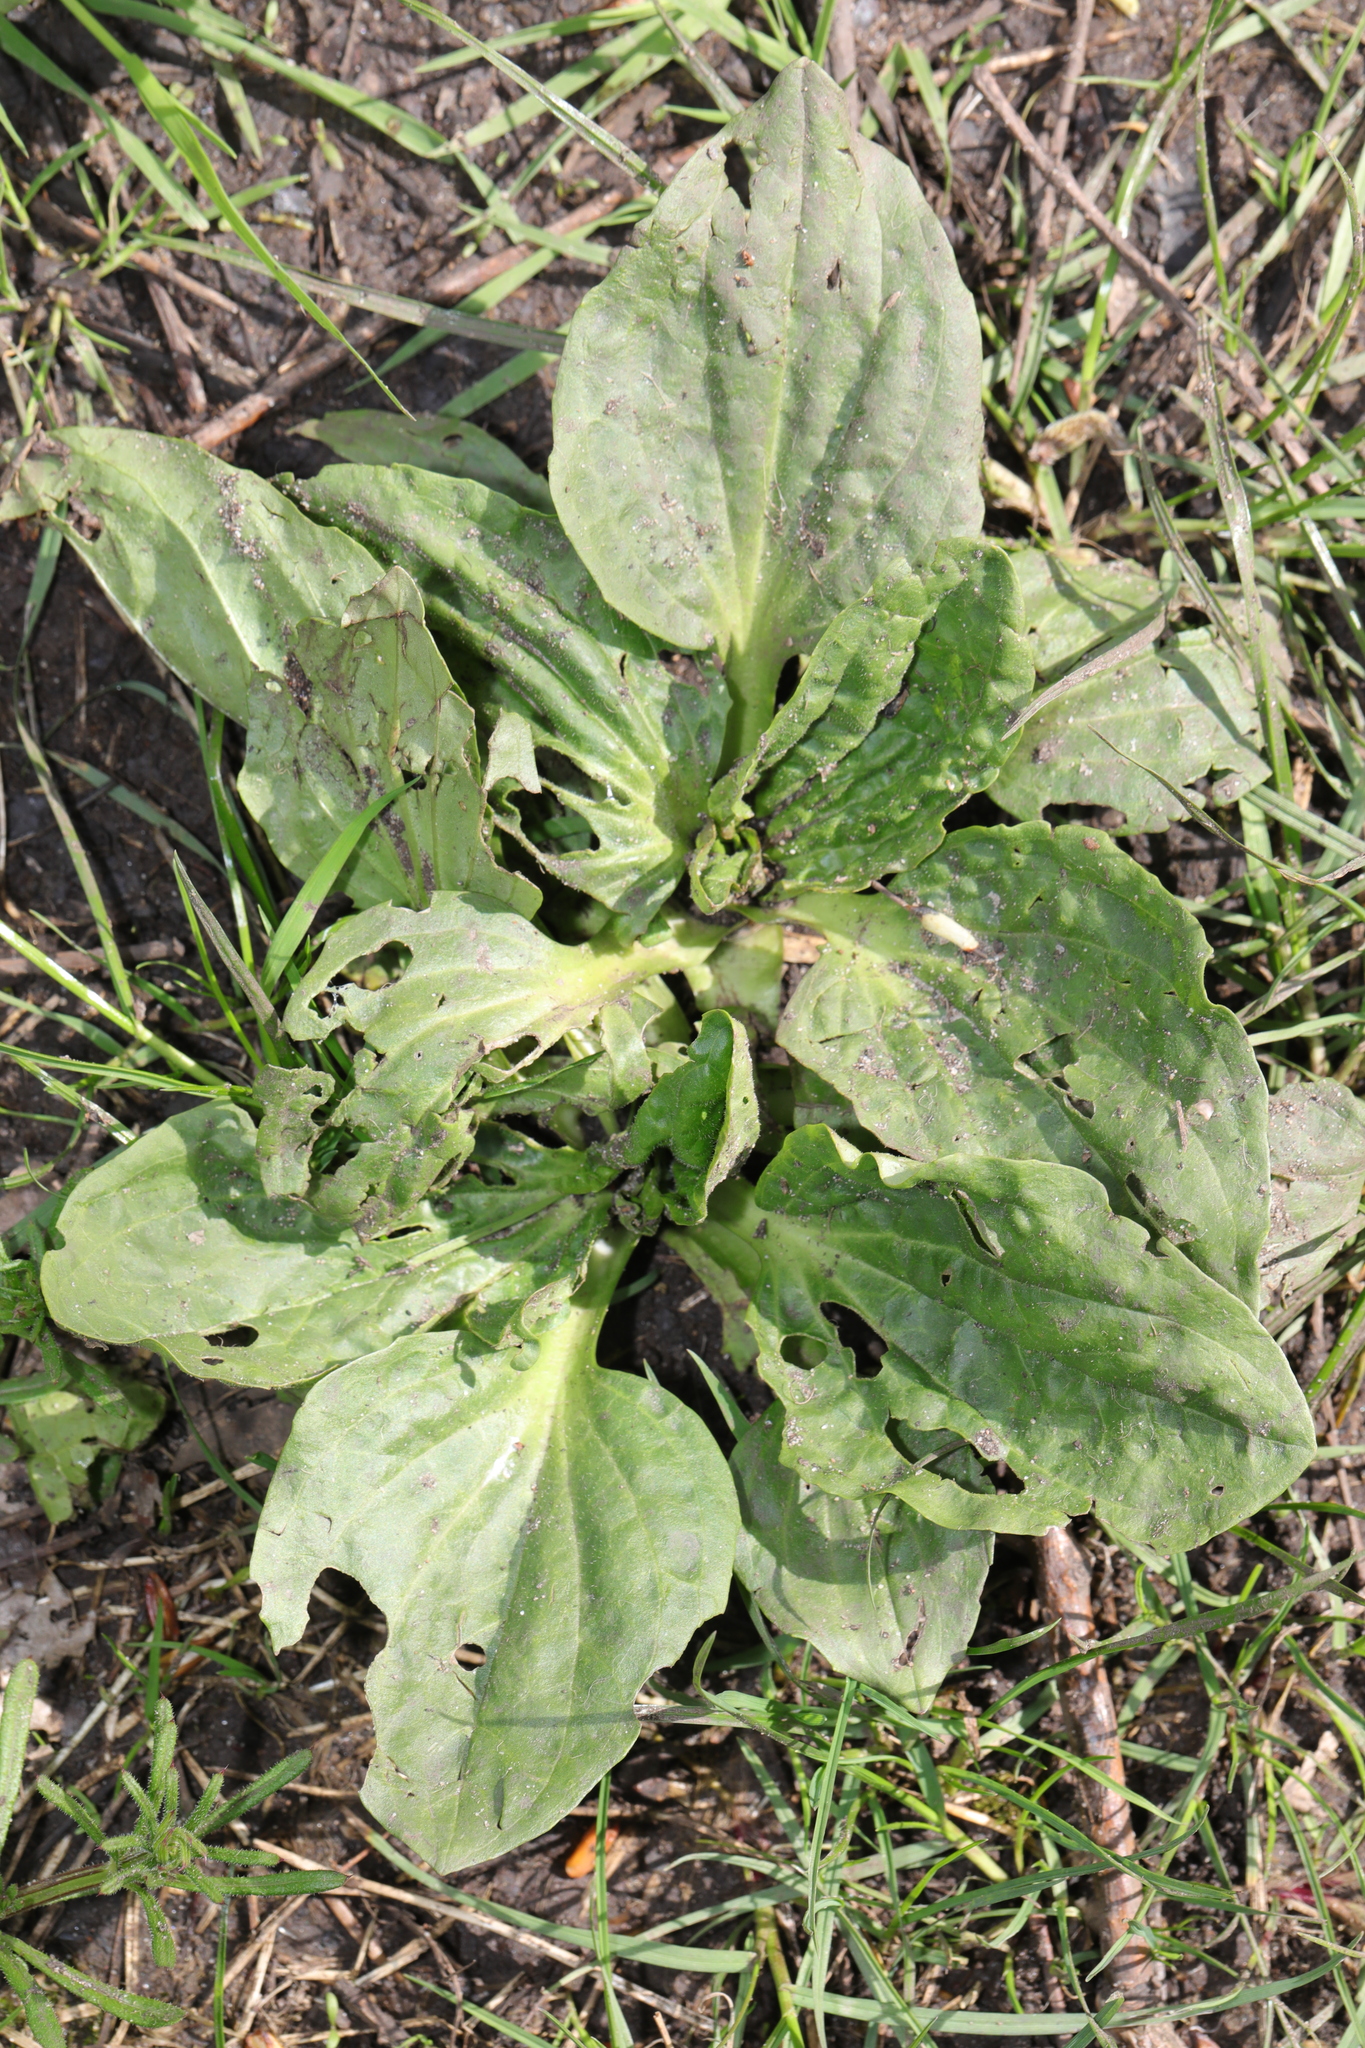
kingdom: Plantae
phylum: Tracheophyta
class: Magnoliopsida
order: Lamiales
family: Plantaginaceae
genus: Plantago
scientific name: Plantago major
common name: Common plantain
